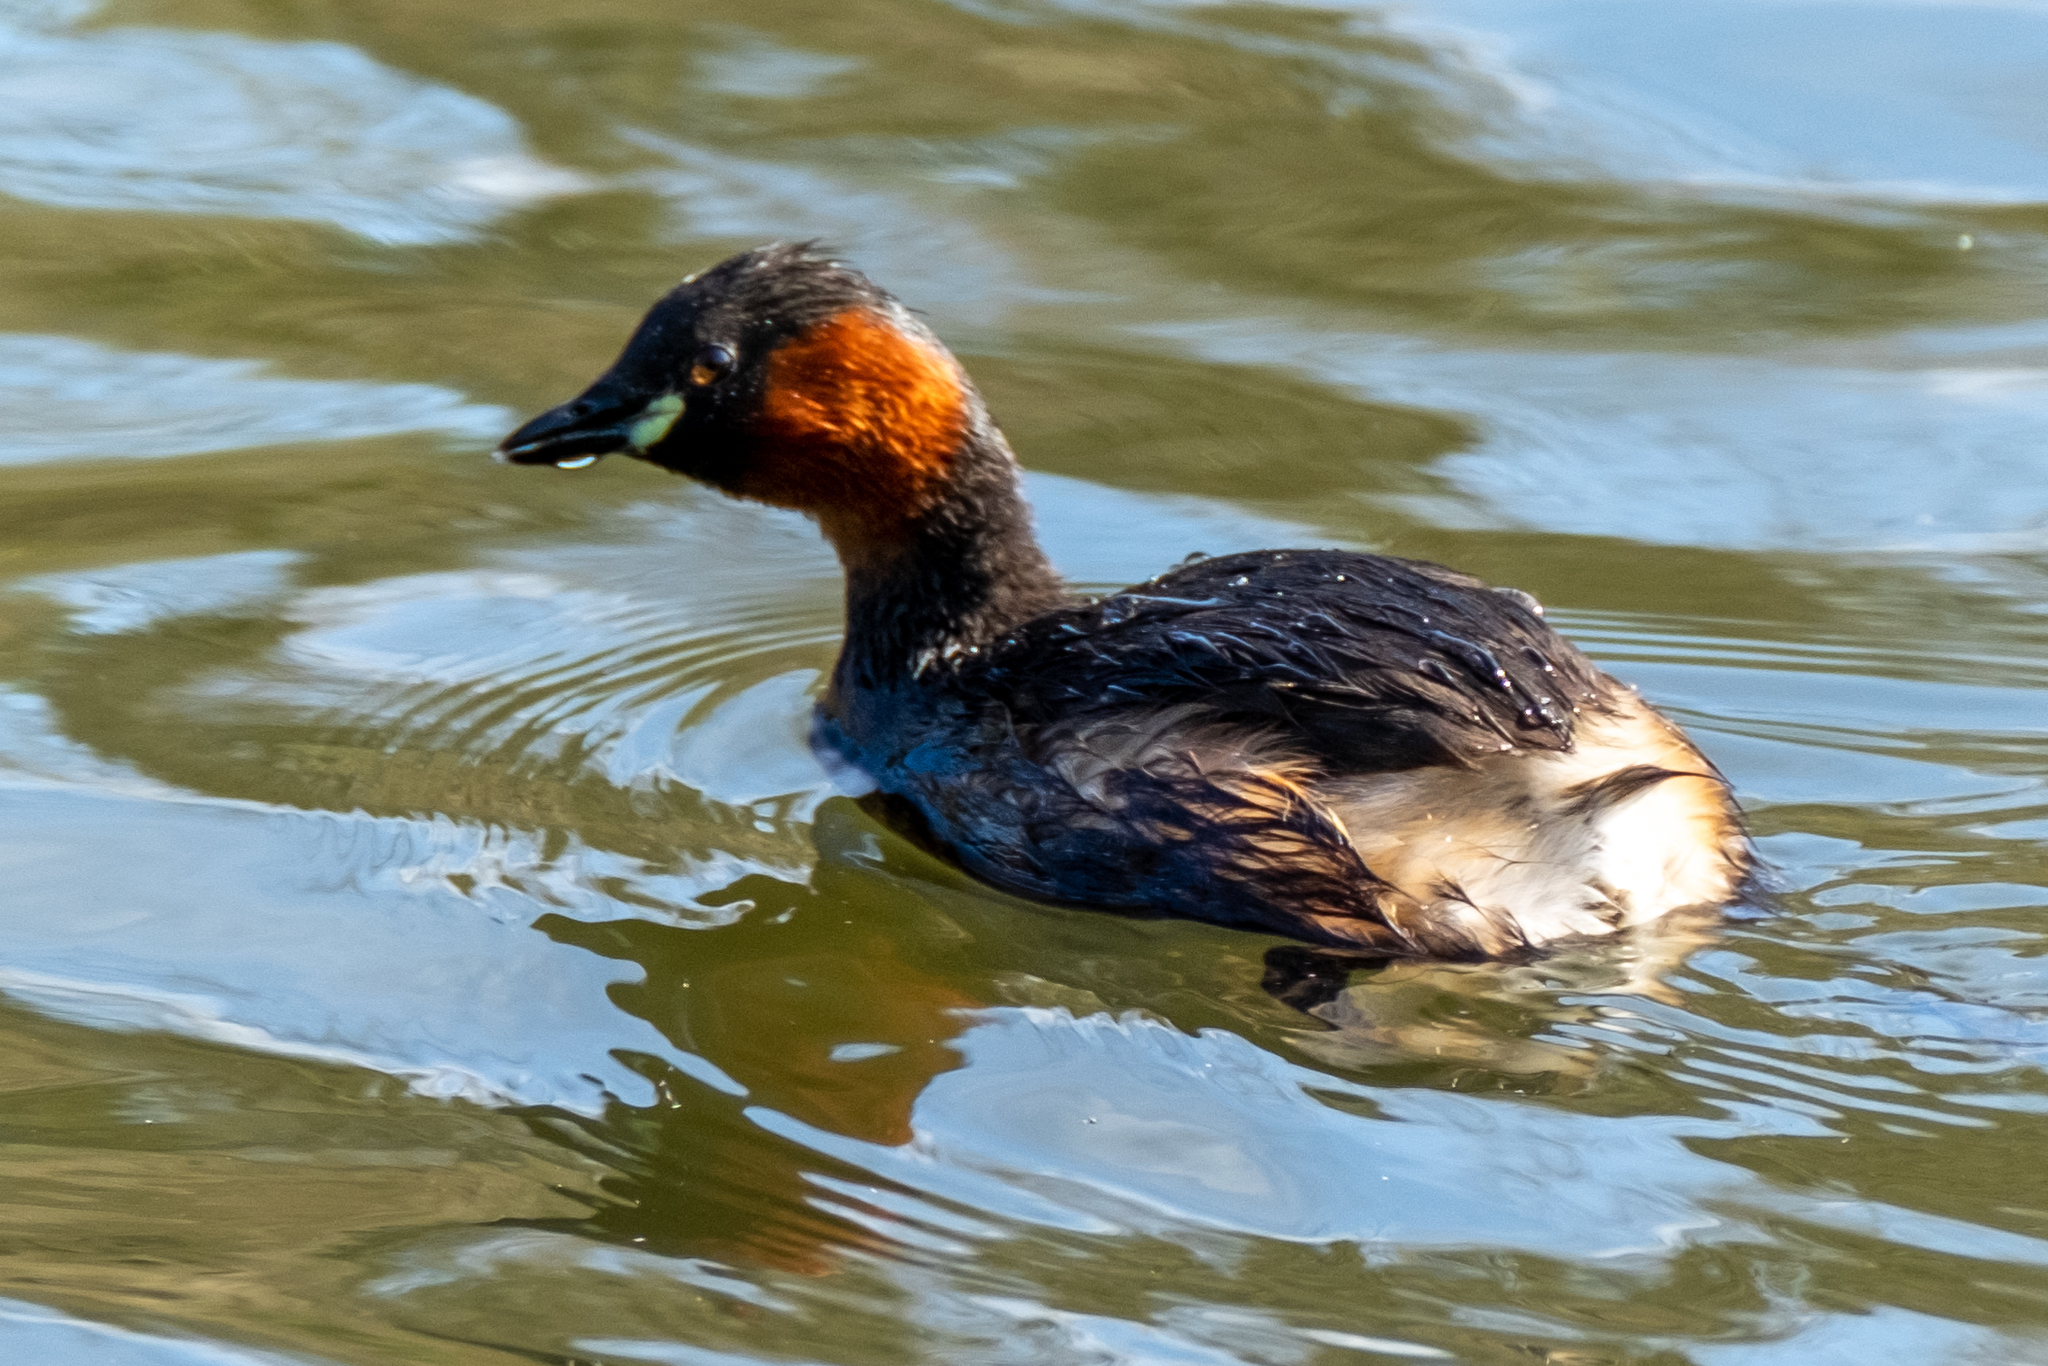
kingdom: Animalia
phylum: Chordata
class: Aves
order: Podicipediformes
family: Podicipedidae
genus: Tachybaptus
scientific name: Tachybaptus ruficollis
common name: Little grebe
